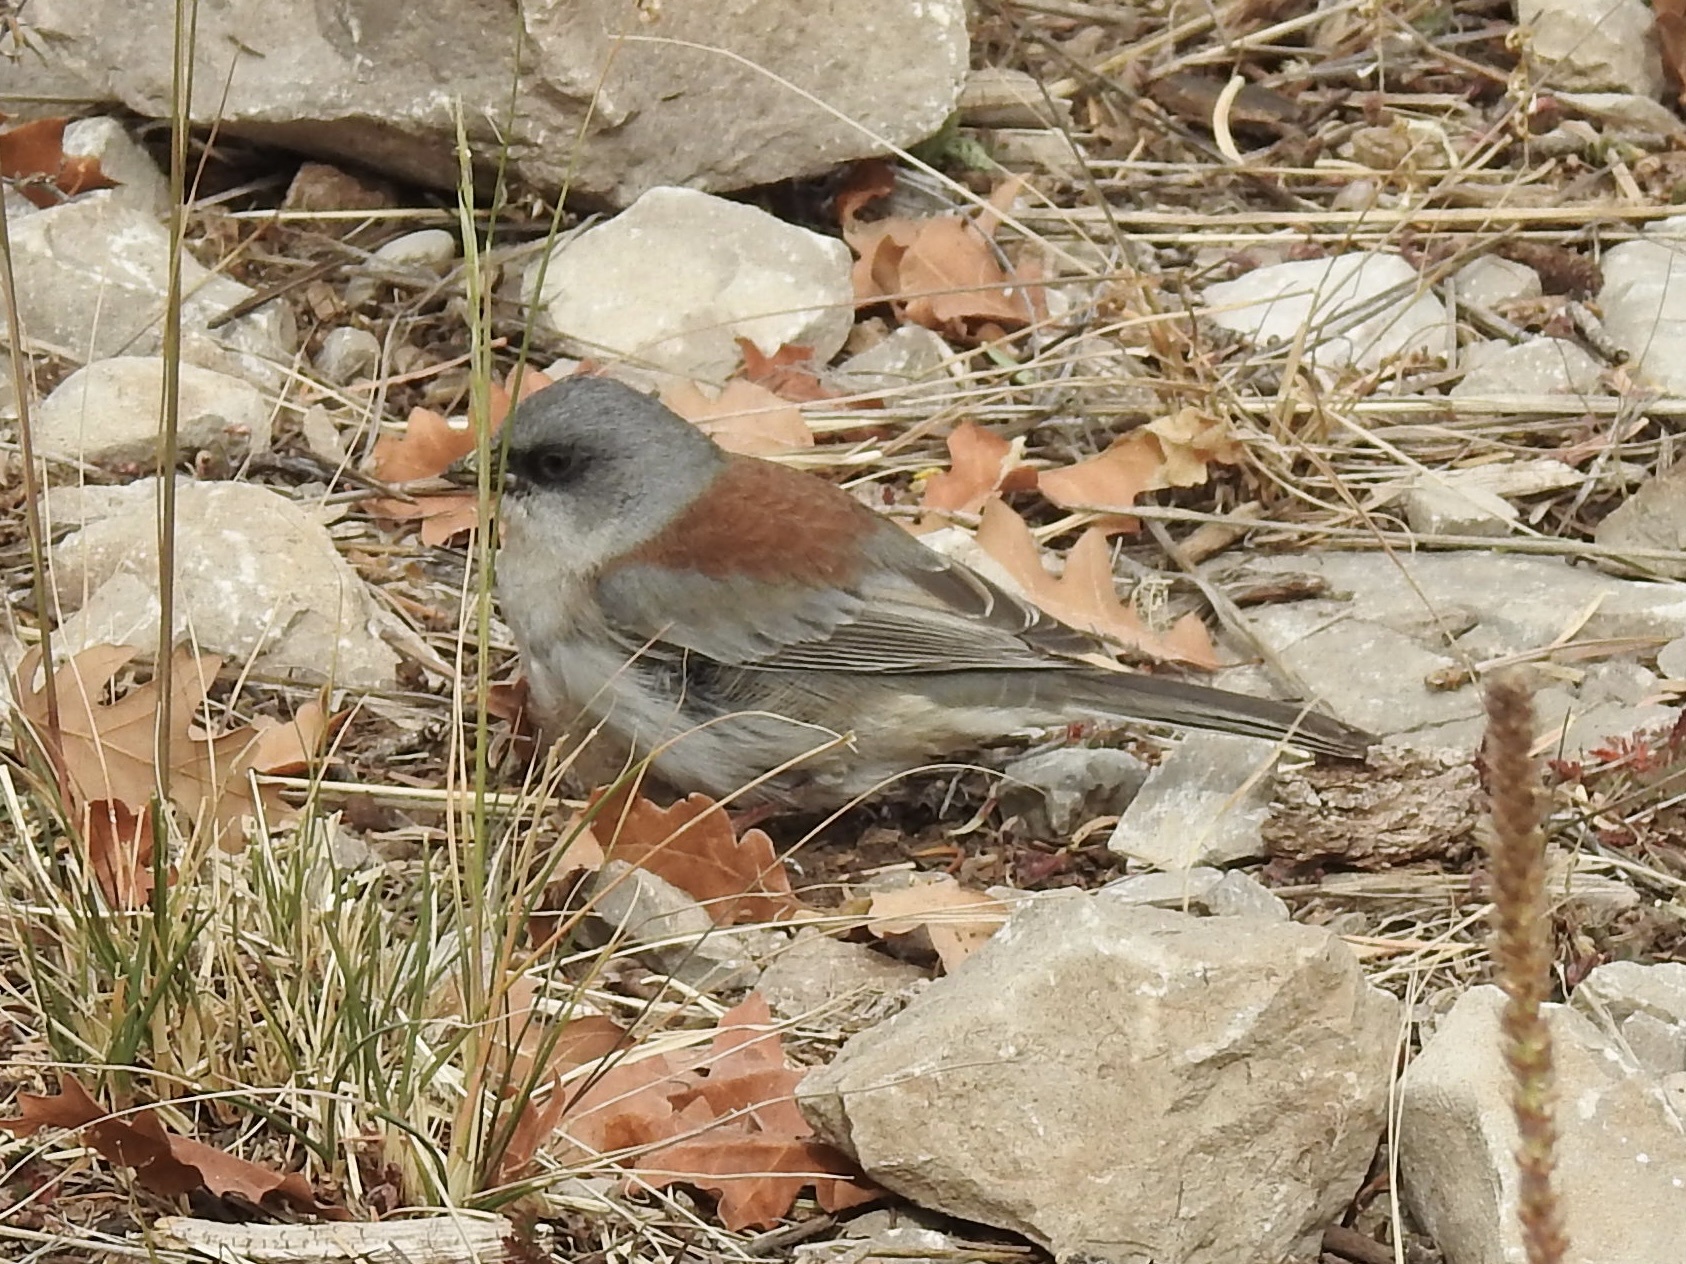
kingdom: Animalia
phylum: Chordata
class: Aves
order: Passeriformes
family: Passerellidae
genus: Junco
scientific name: Junco hyemalis
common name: Dark-eyed junco
